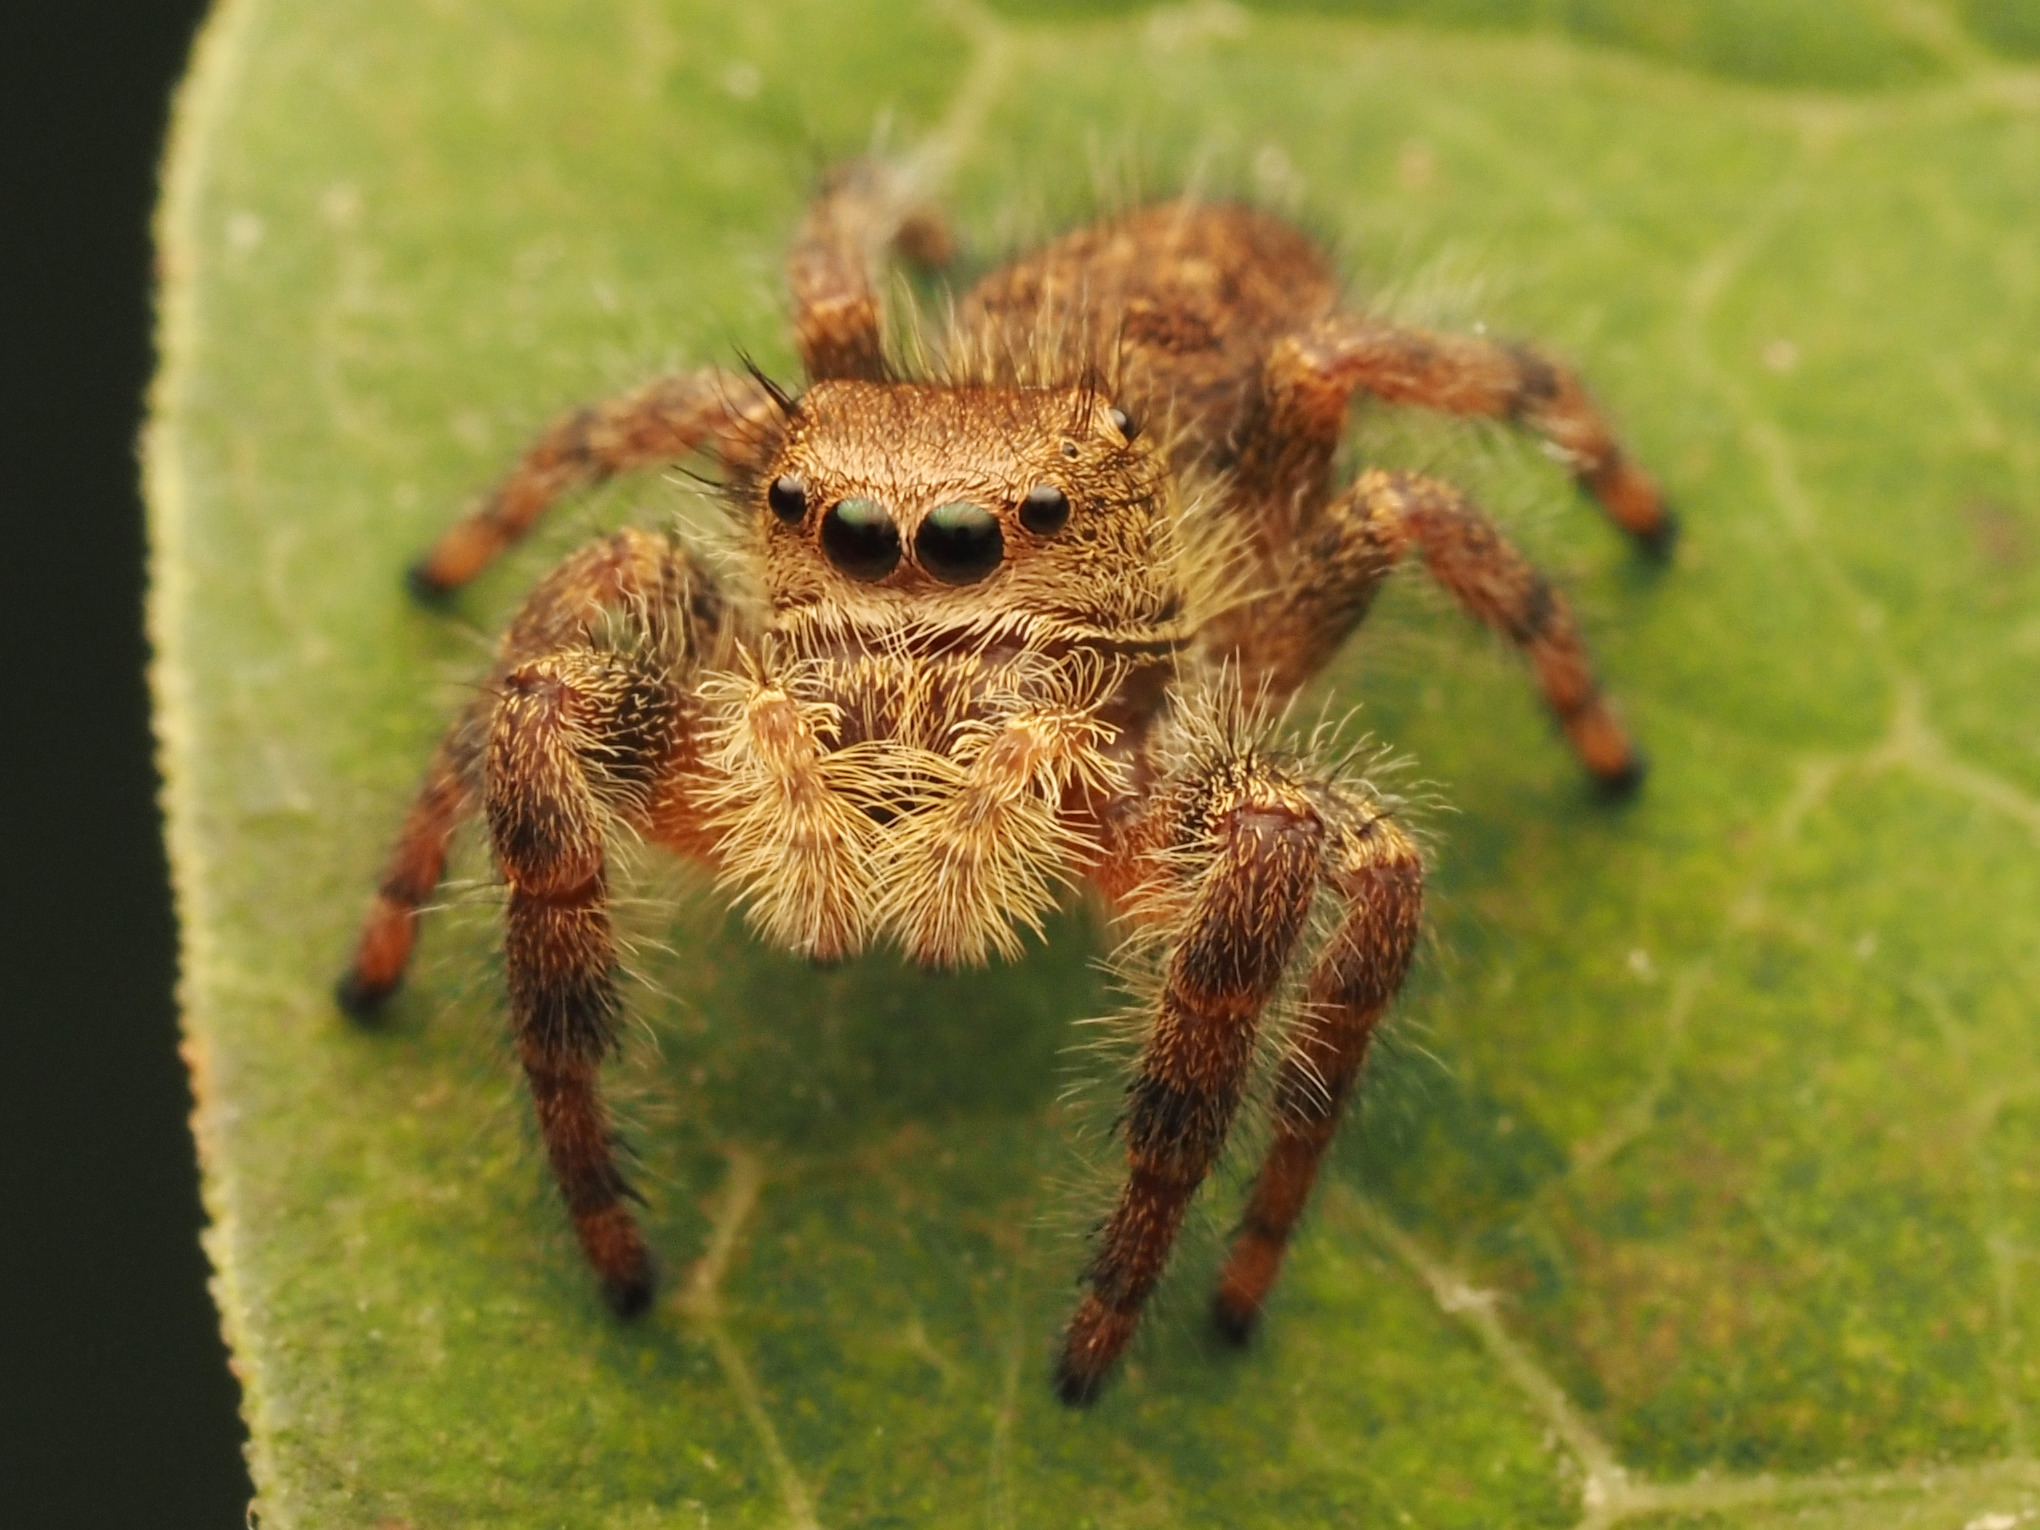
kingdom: Animalia
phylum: Arthropoda
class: Arachnida
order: Araneae
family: Salticidae
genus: Phidippus
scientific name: Phidippus princeps
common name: Grayish jumping spider
